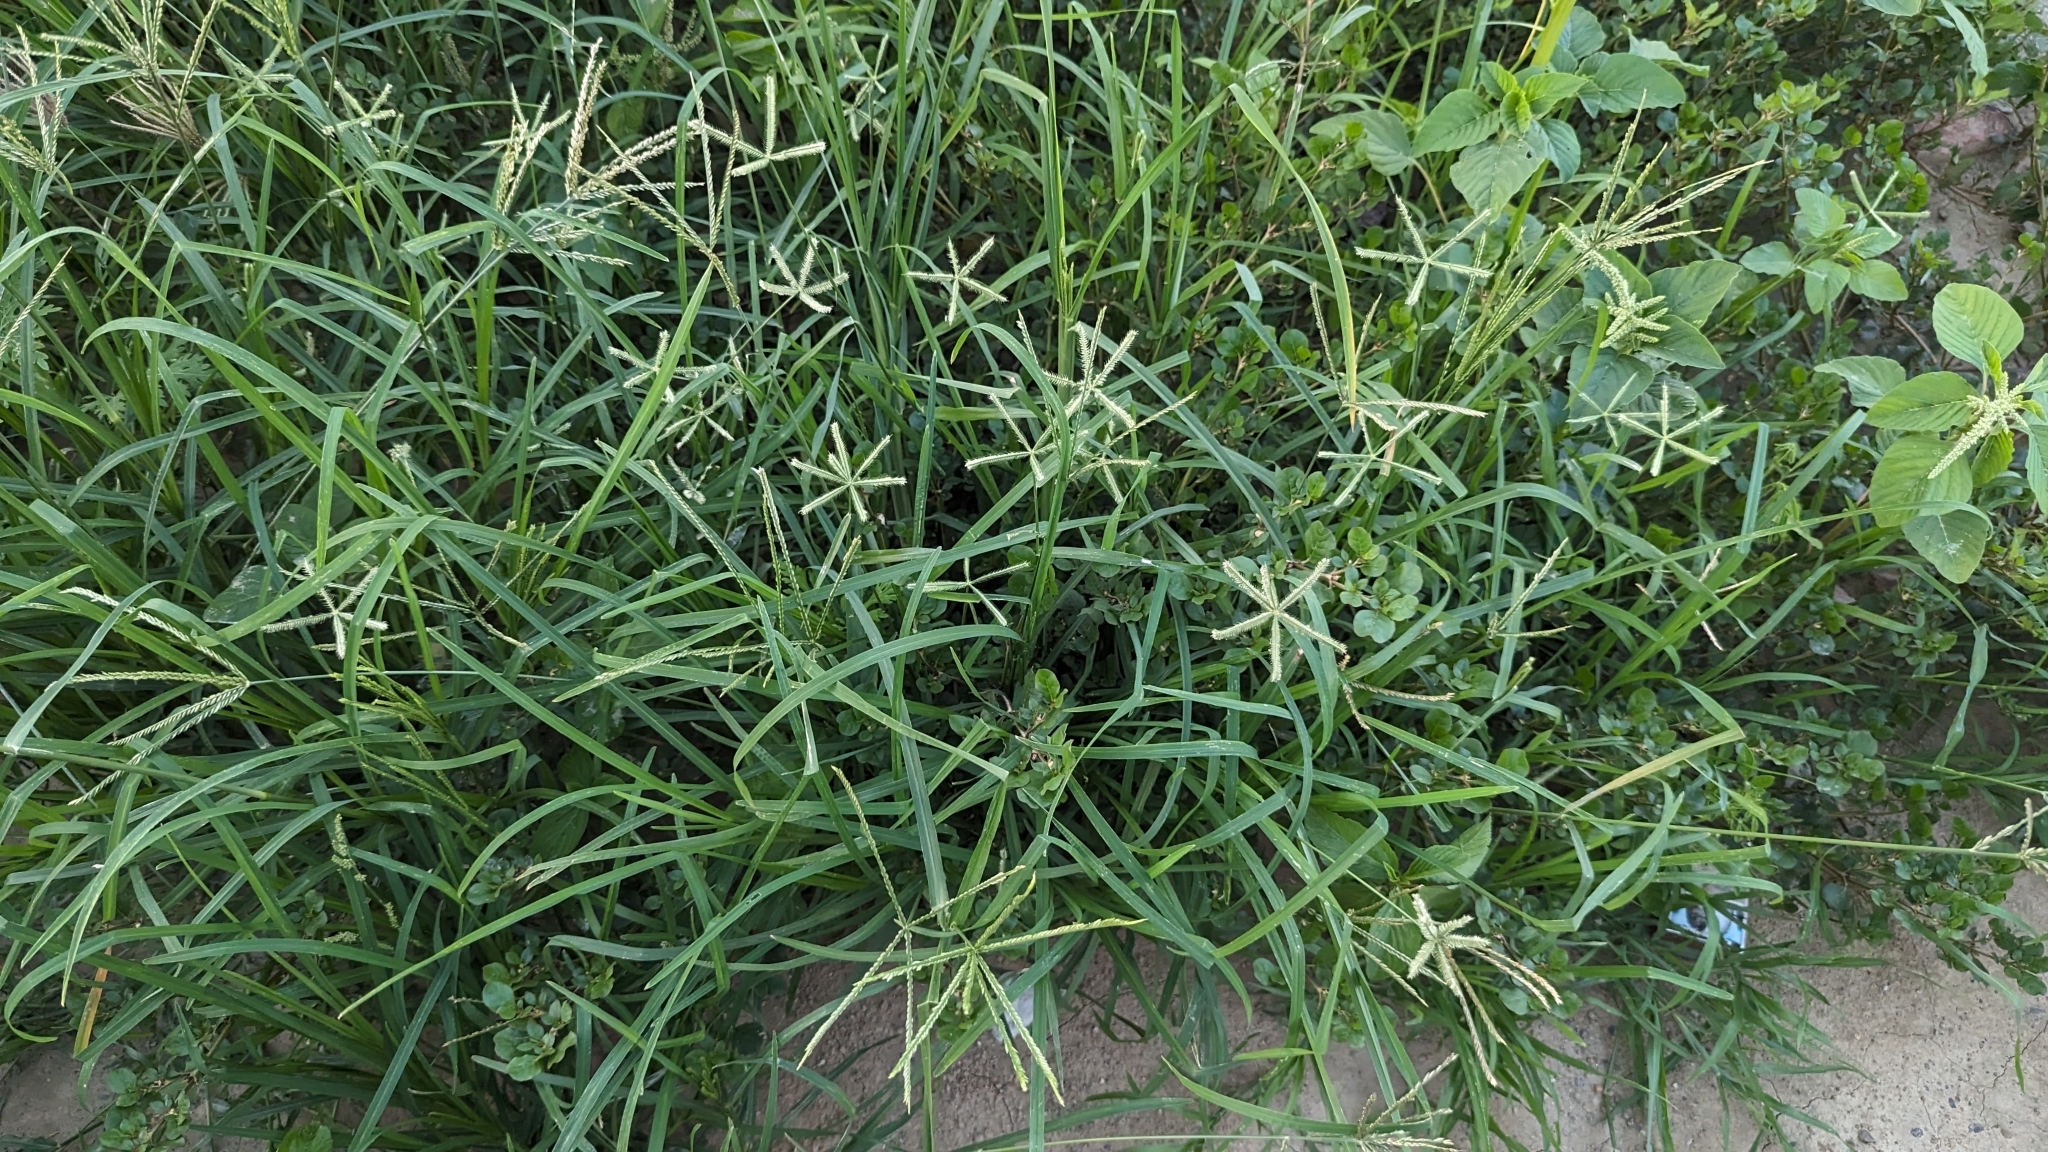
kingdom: Plantae
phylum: Tracheophyta
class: Liliopsida
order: Poales
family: Poaceae
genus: Dactyloctenium
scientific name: Dactyloctenium aegyptium
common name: Egyptian grass
